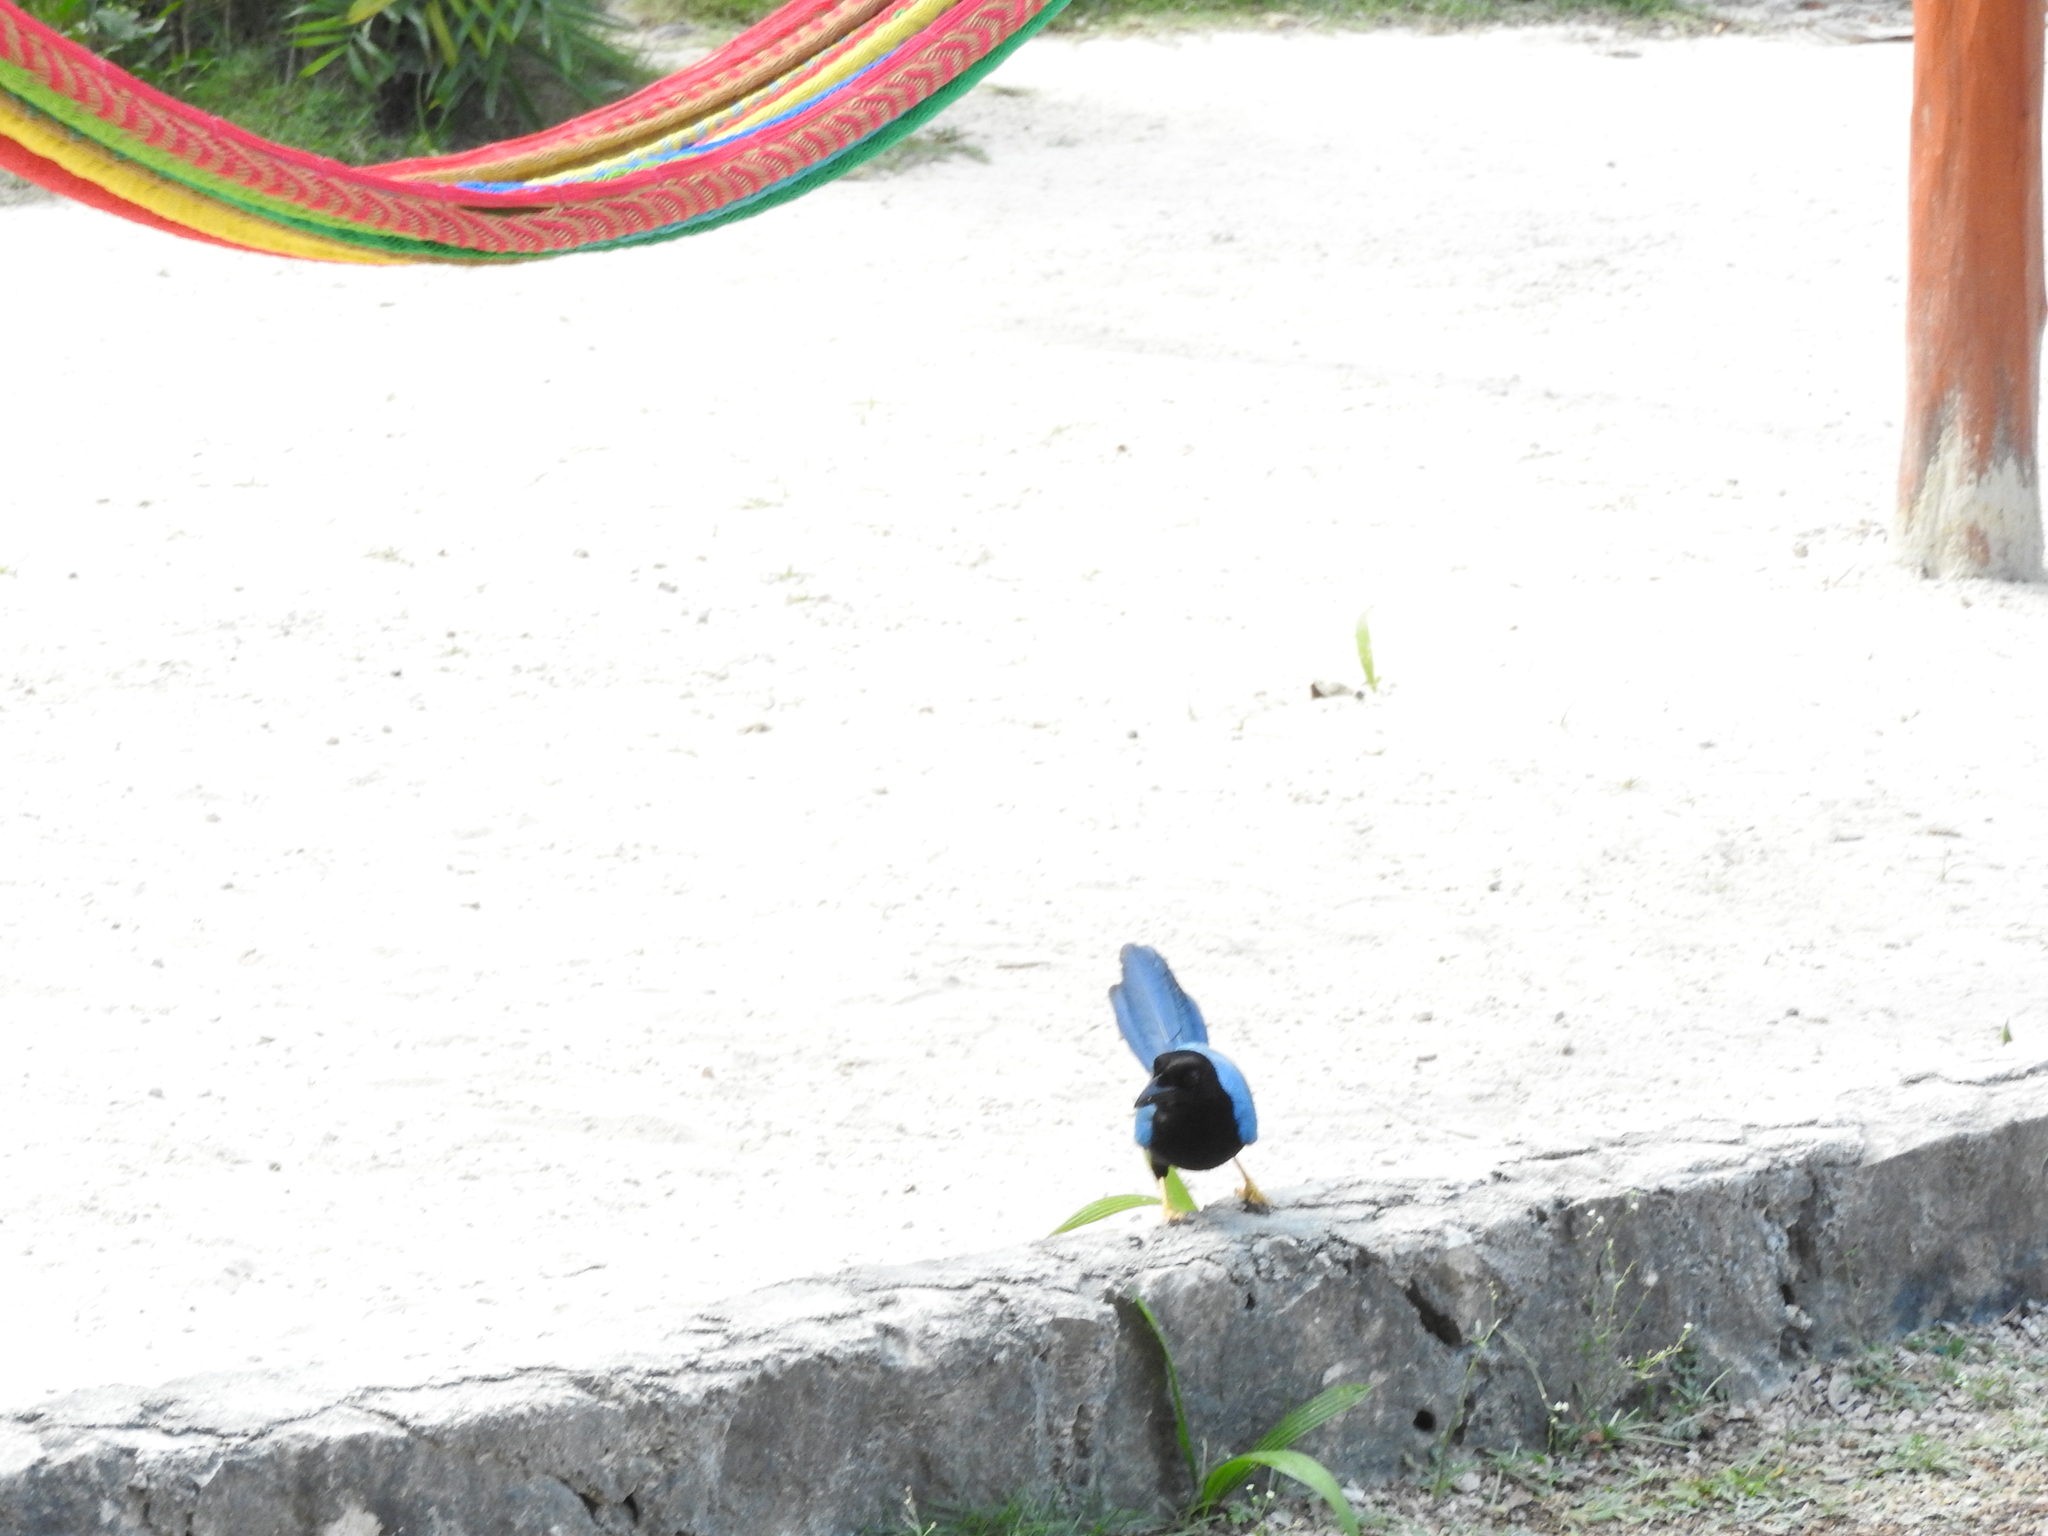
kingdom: Animalia
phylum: Chordata
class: Aves
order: Passeriformes
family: Corvidae
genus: Cyanocorax
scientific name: Cyanocorax yucatanicus
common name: Yucatan jay
